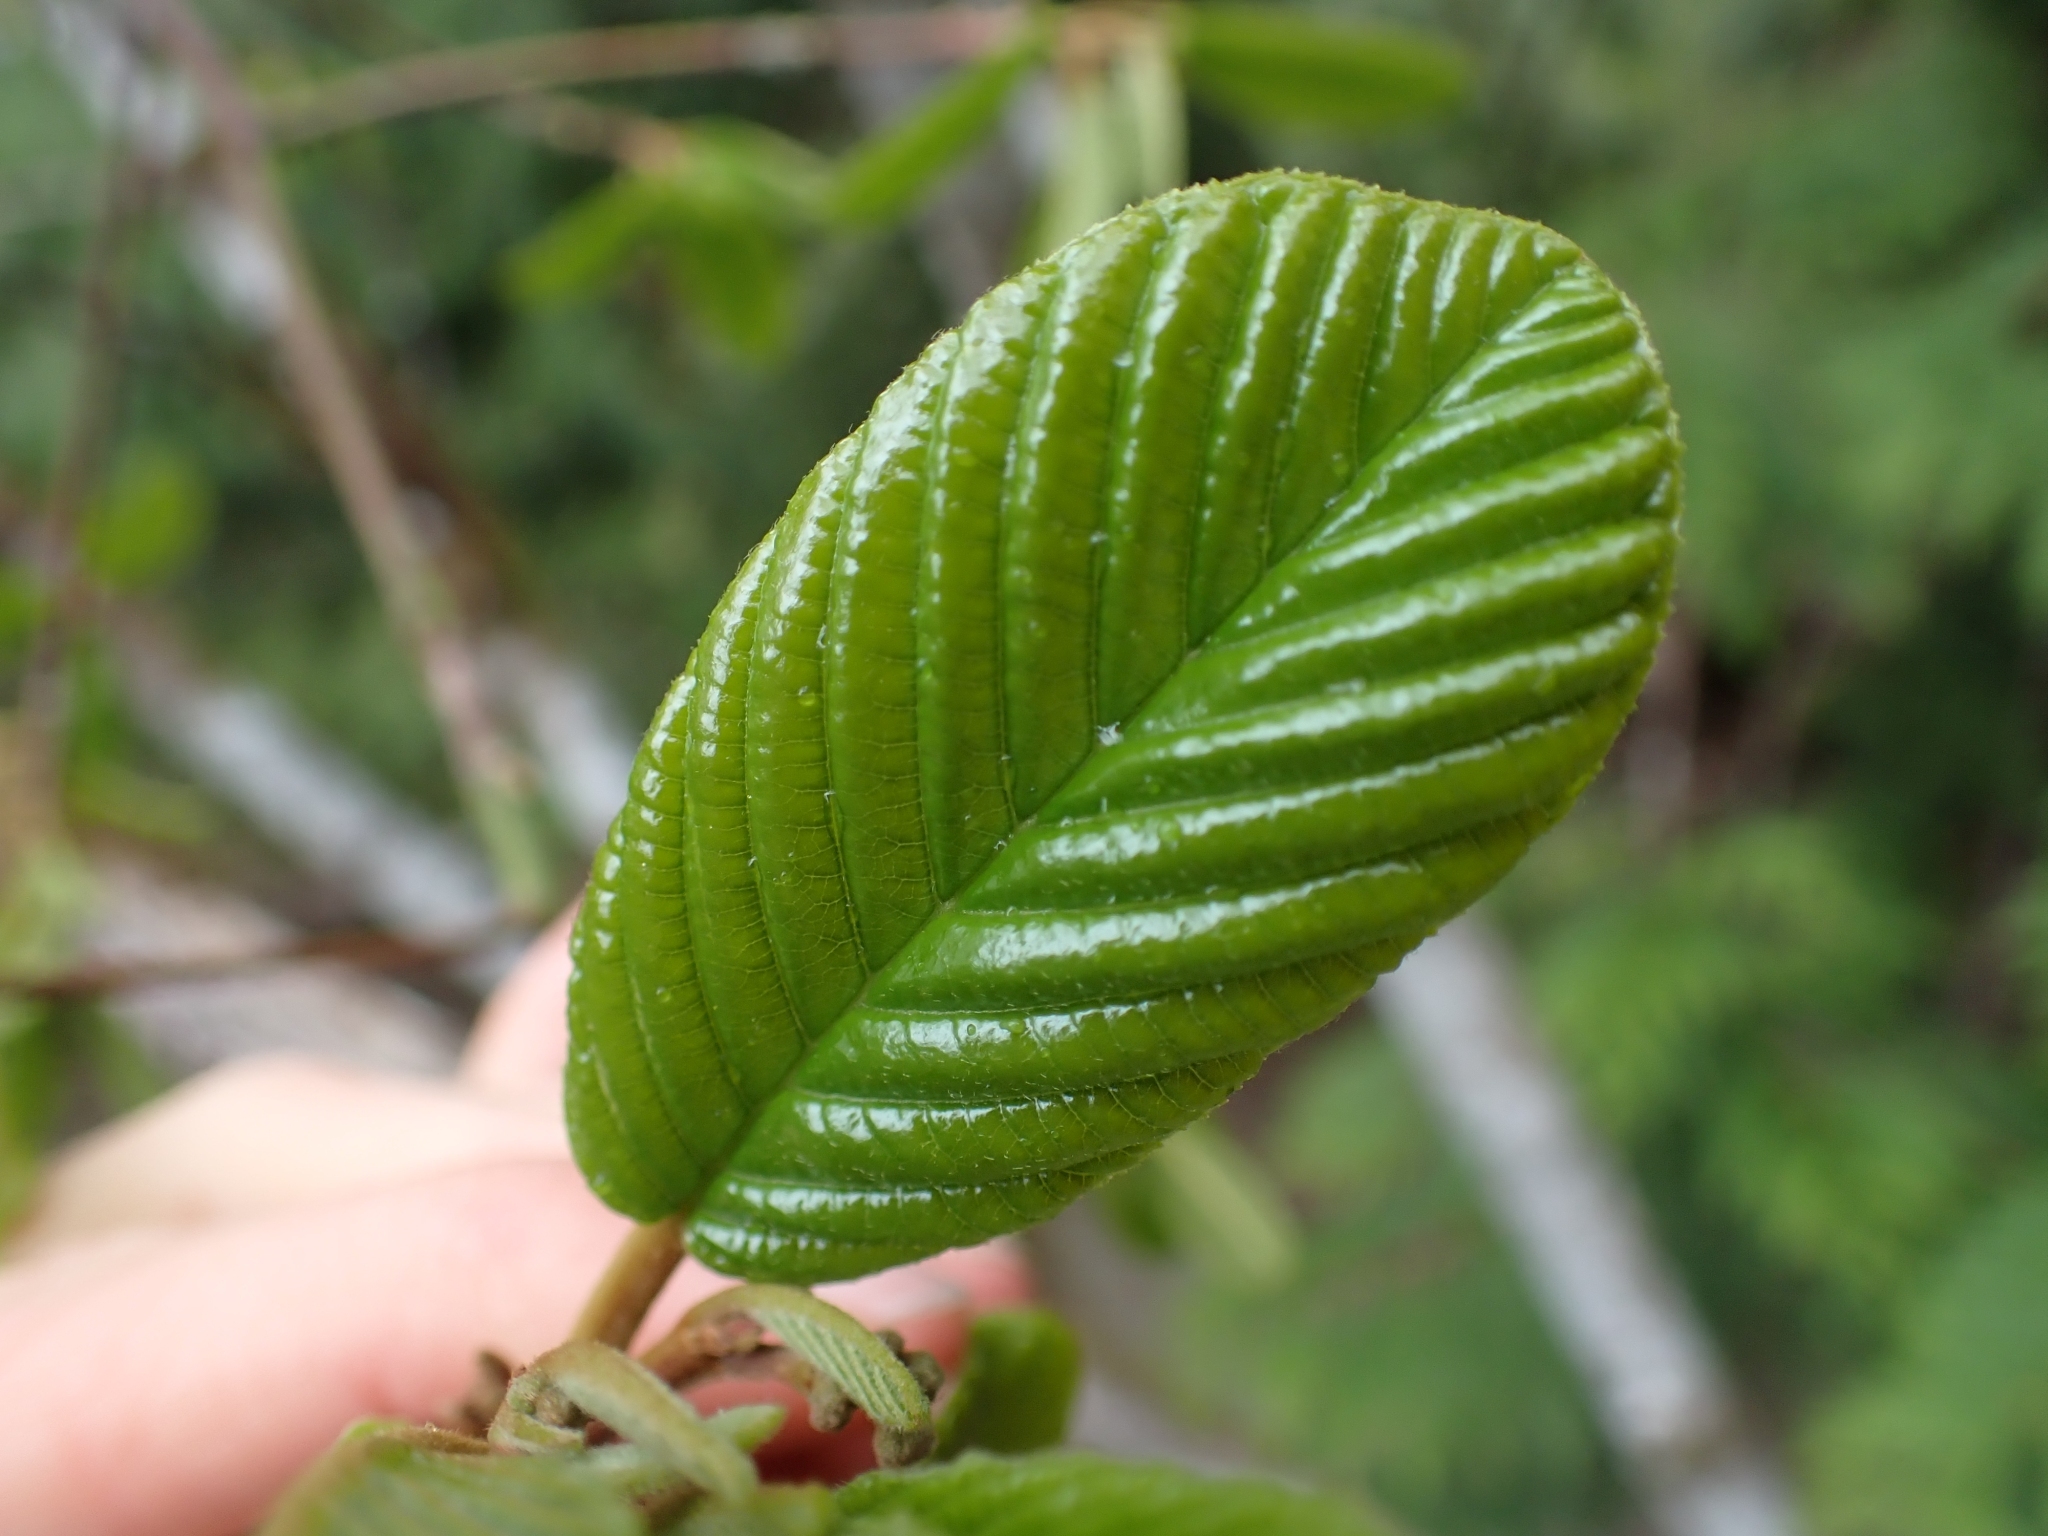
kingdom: Plantae
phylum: Tracheophyta
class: Magnoliopsida
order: Rosales
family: Rhamnaceae
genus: Frangula
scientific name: Frangula purshiana
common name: Cascara buckthorn
